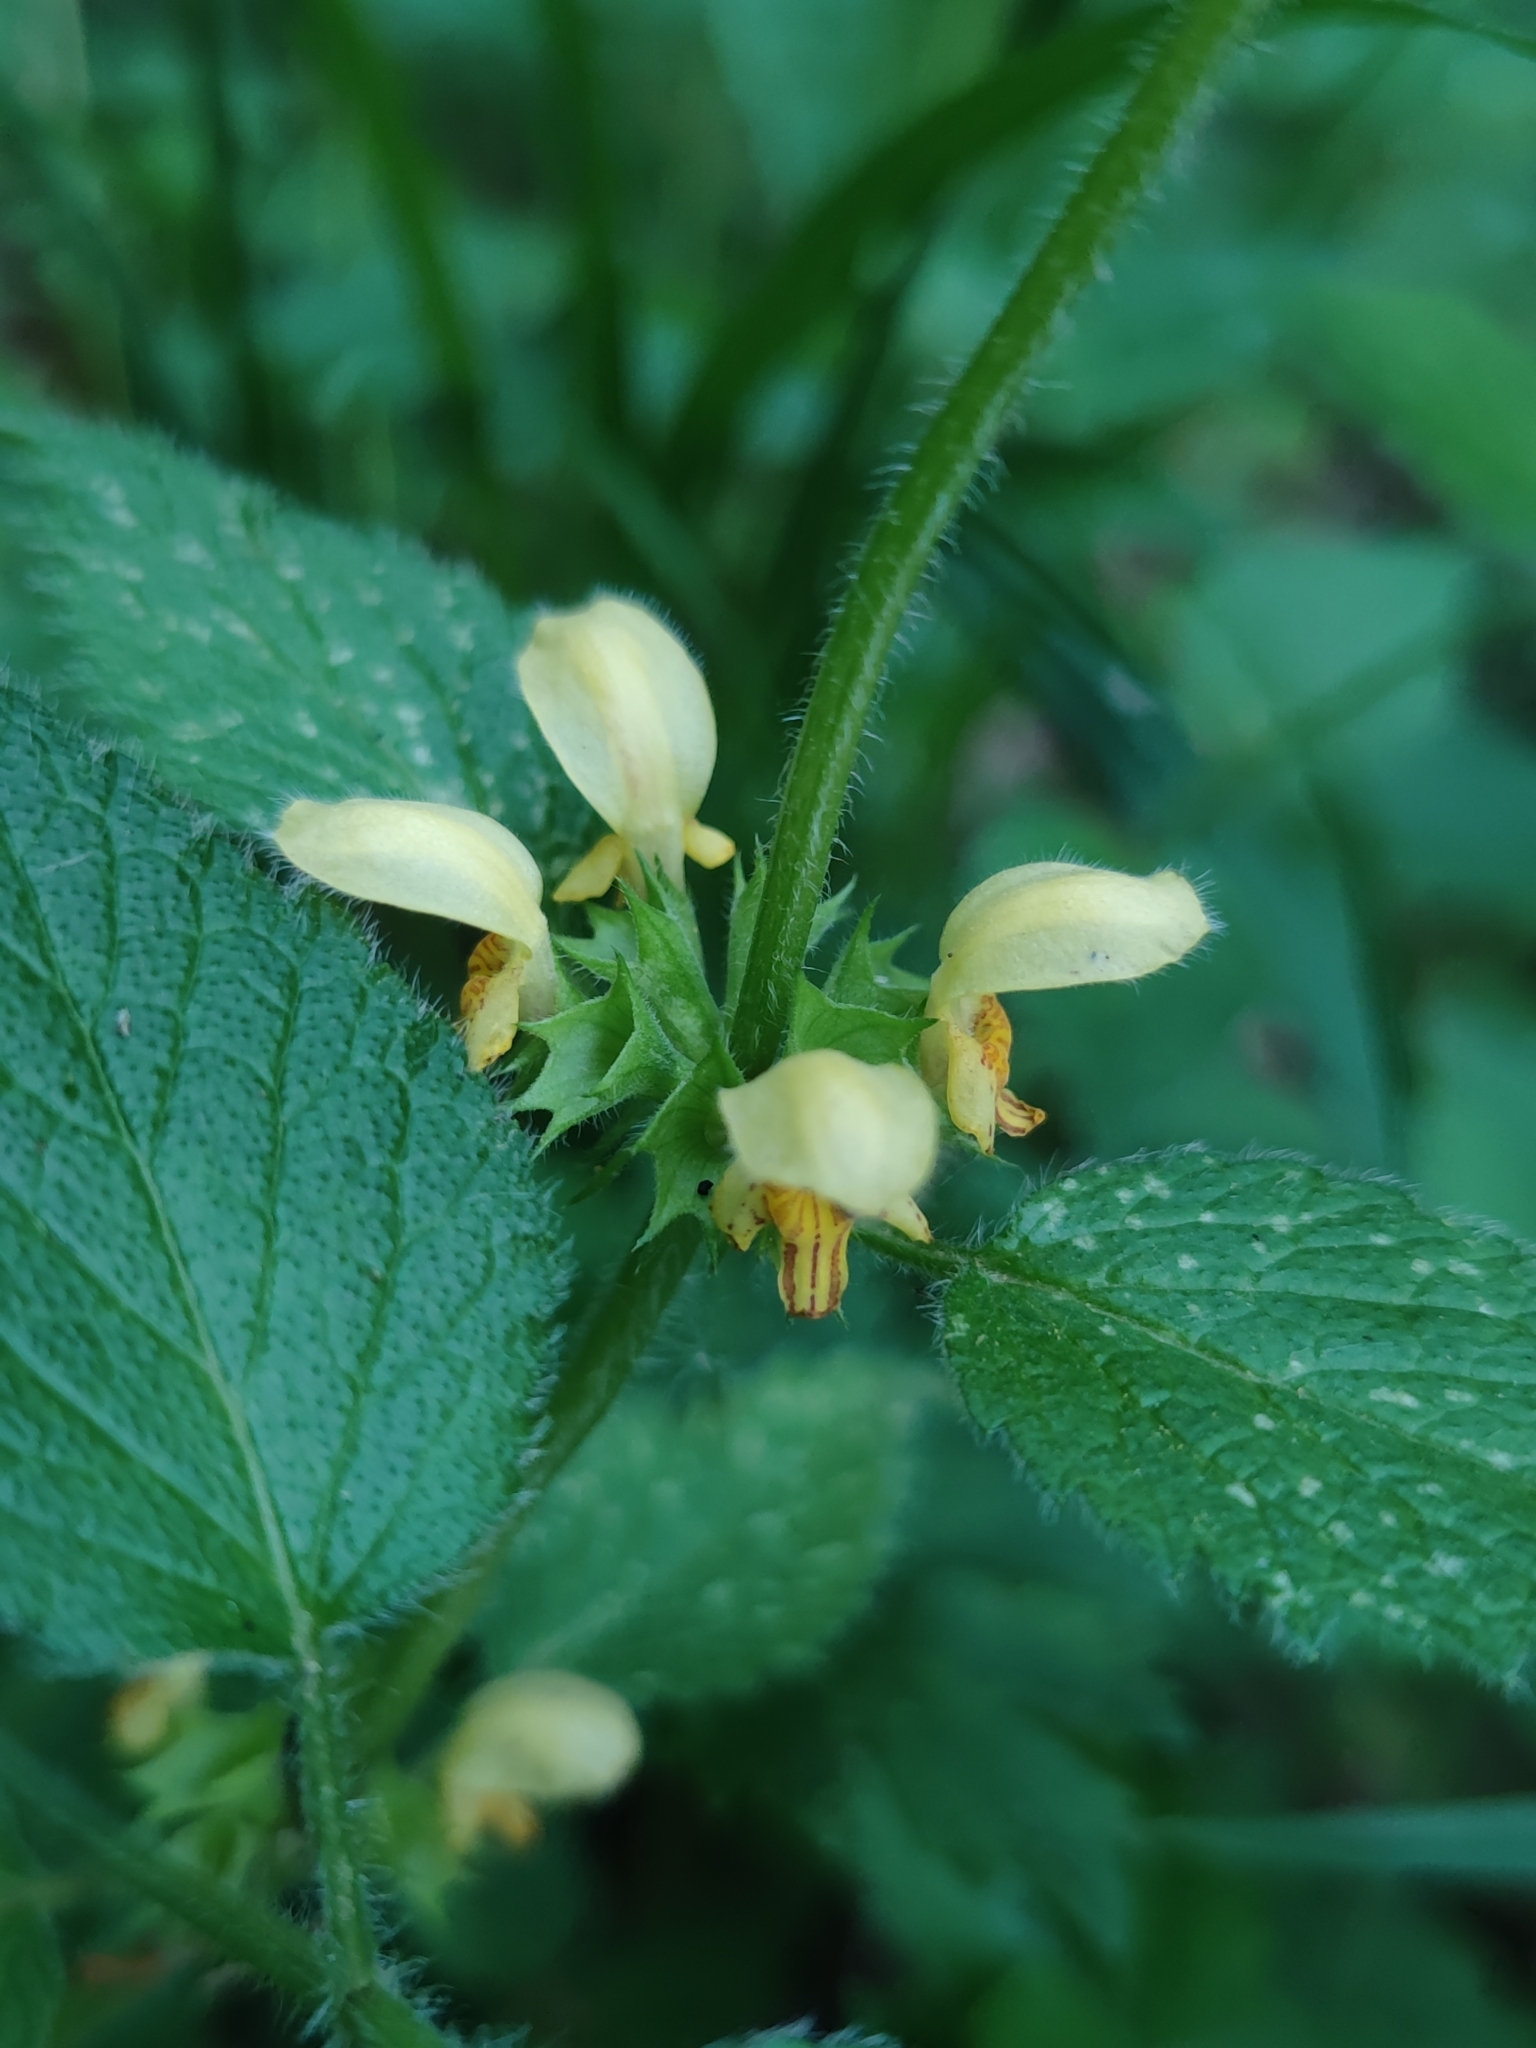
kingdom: Plantae
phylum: Tracheophyta
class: Magnoliopsida
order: Lamiales
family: Lamiaceae
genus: Lamium
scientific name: Lamium galeobdolon
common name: Yellow archangel
